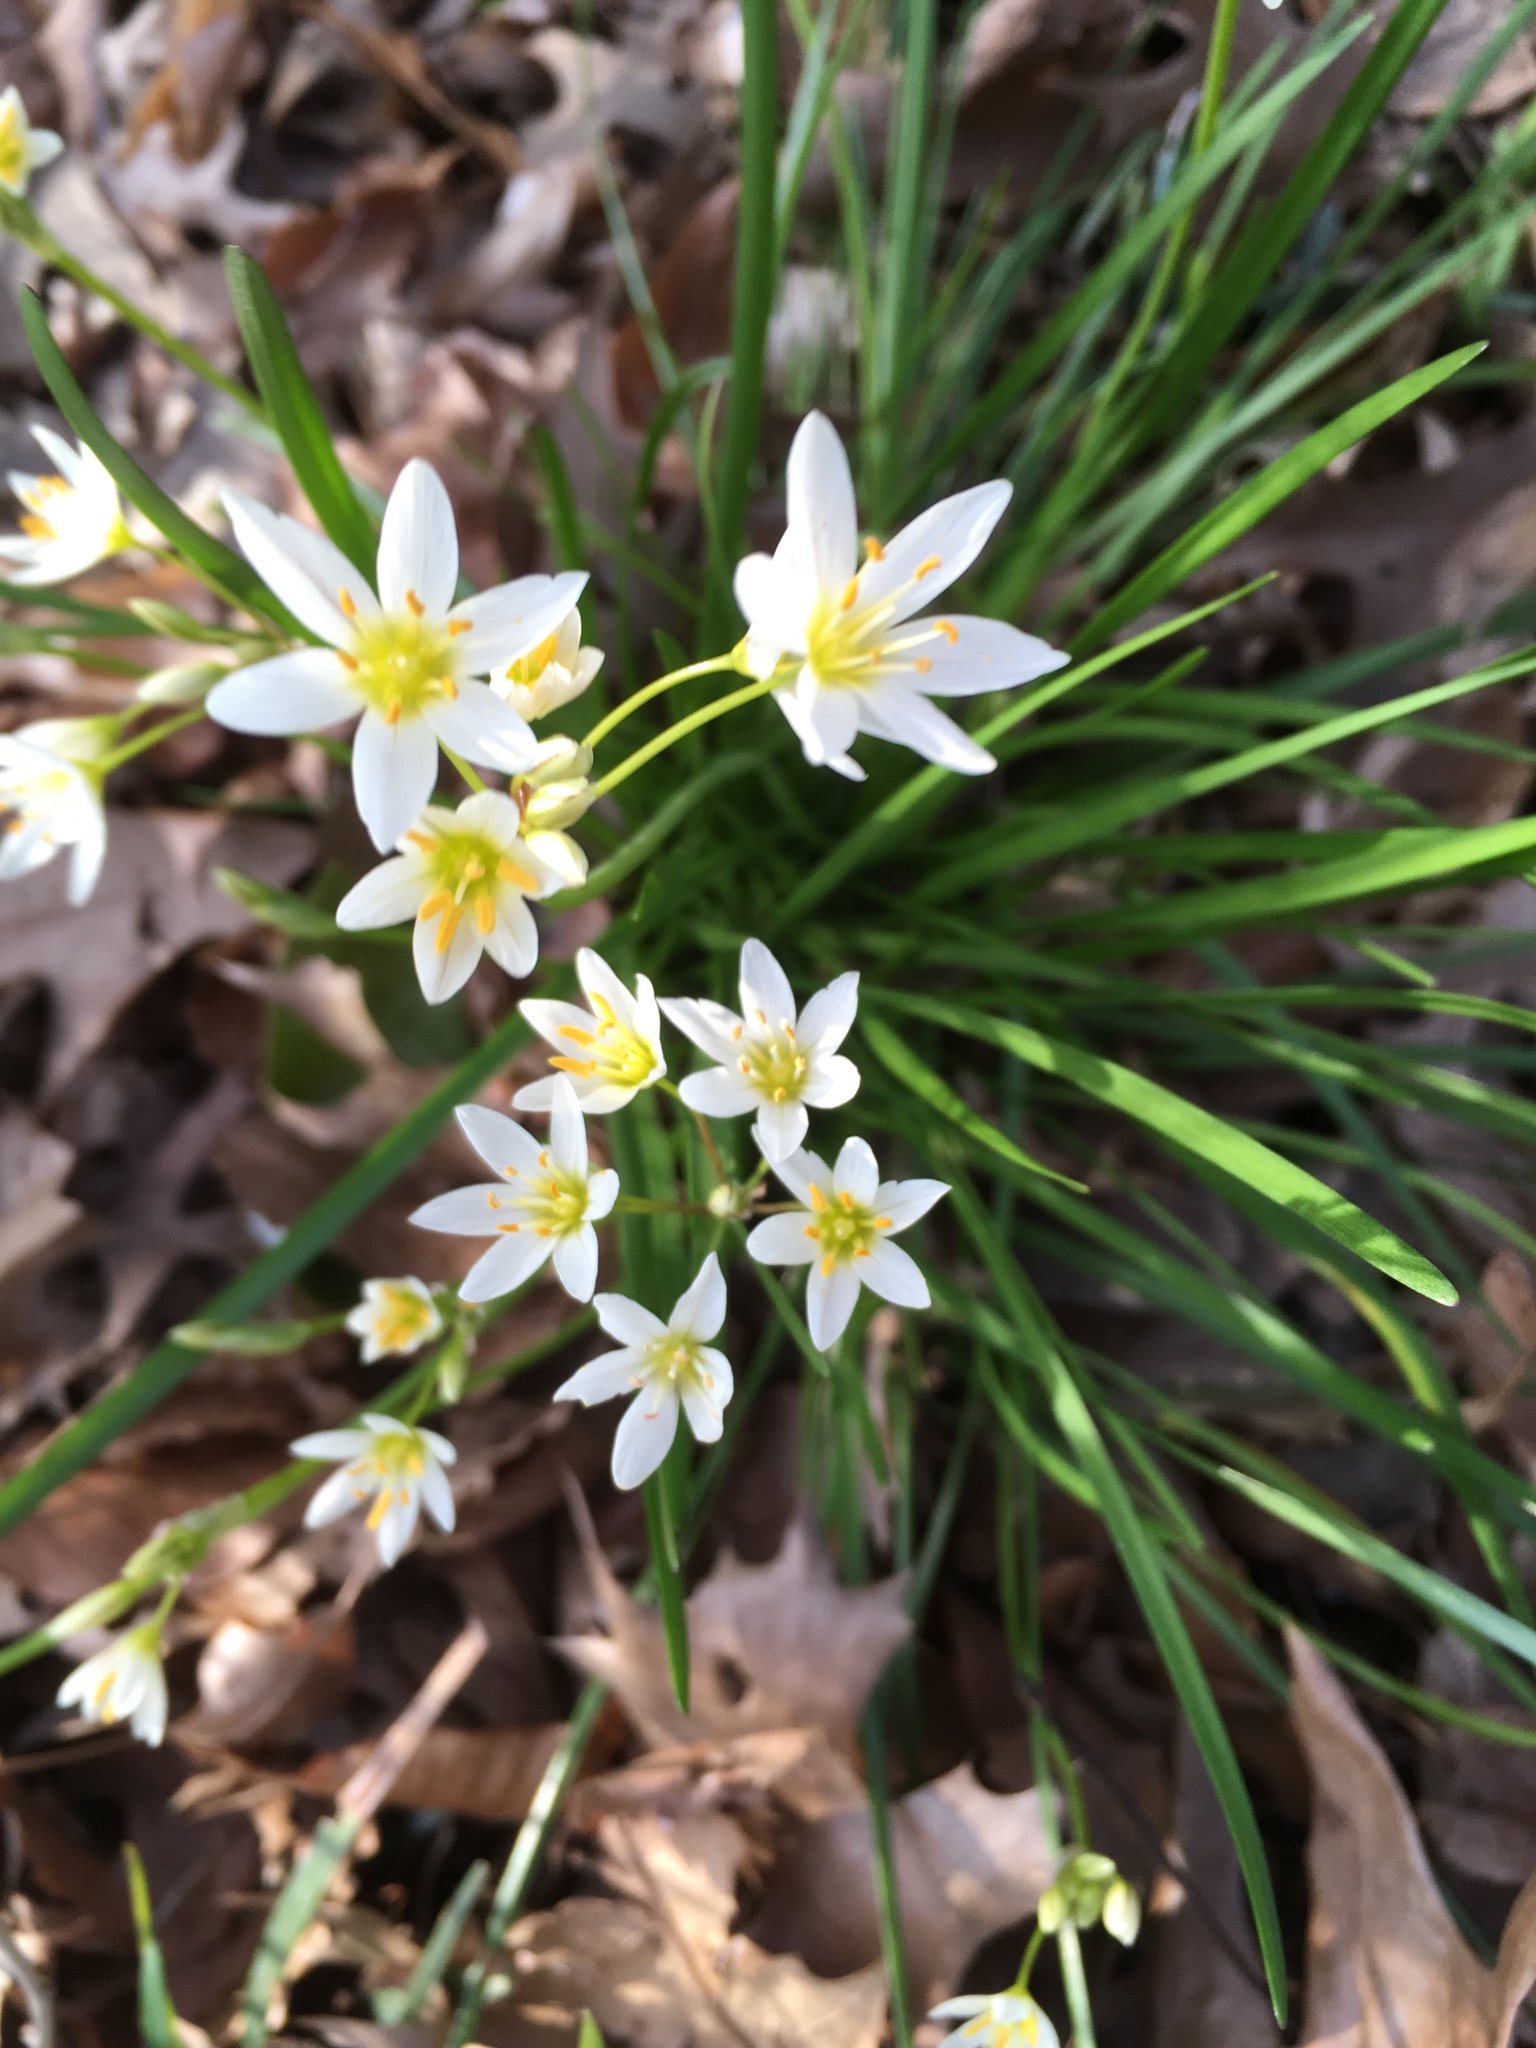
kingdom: Plantae
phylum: Tracheophyta
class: Liliopsida
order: Asparagales
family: Asparagaceae
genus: Ornithogalum
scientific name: Ornithogalum umbellatum
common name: Garden star-of-bethlehem
